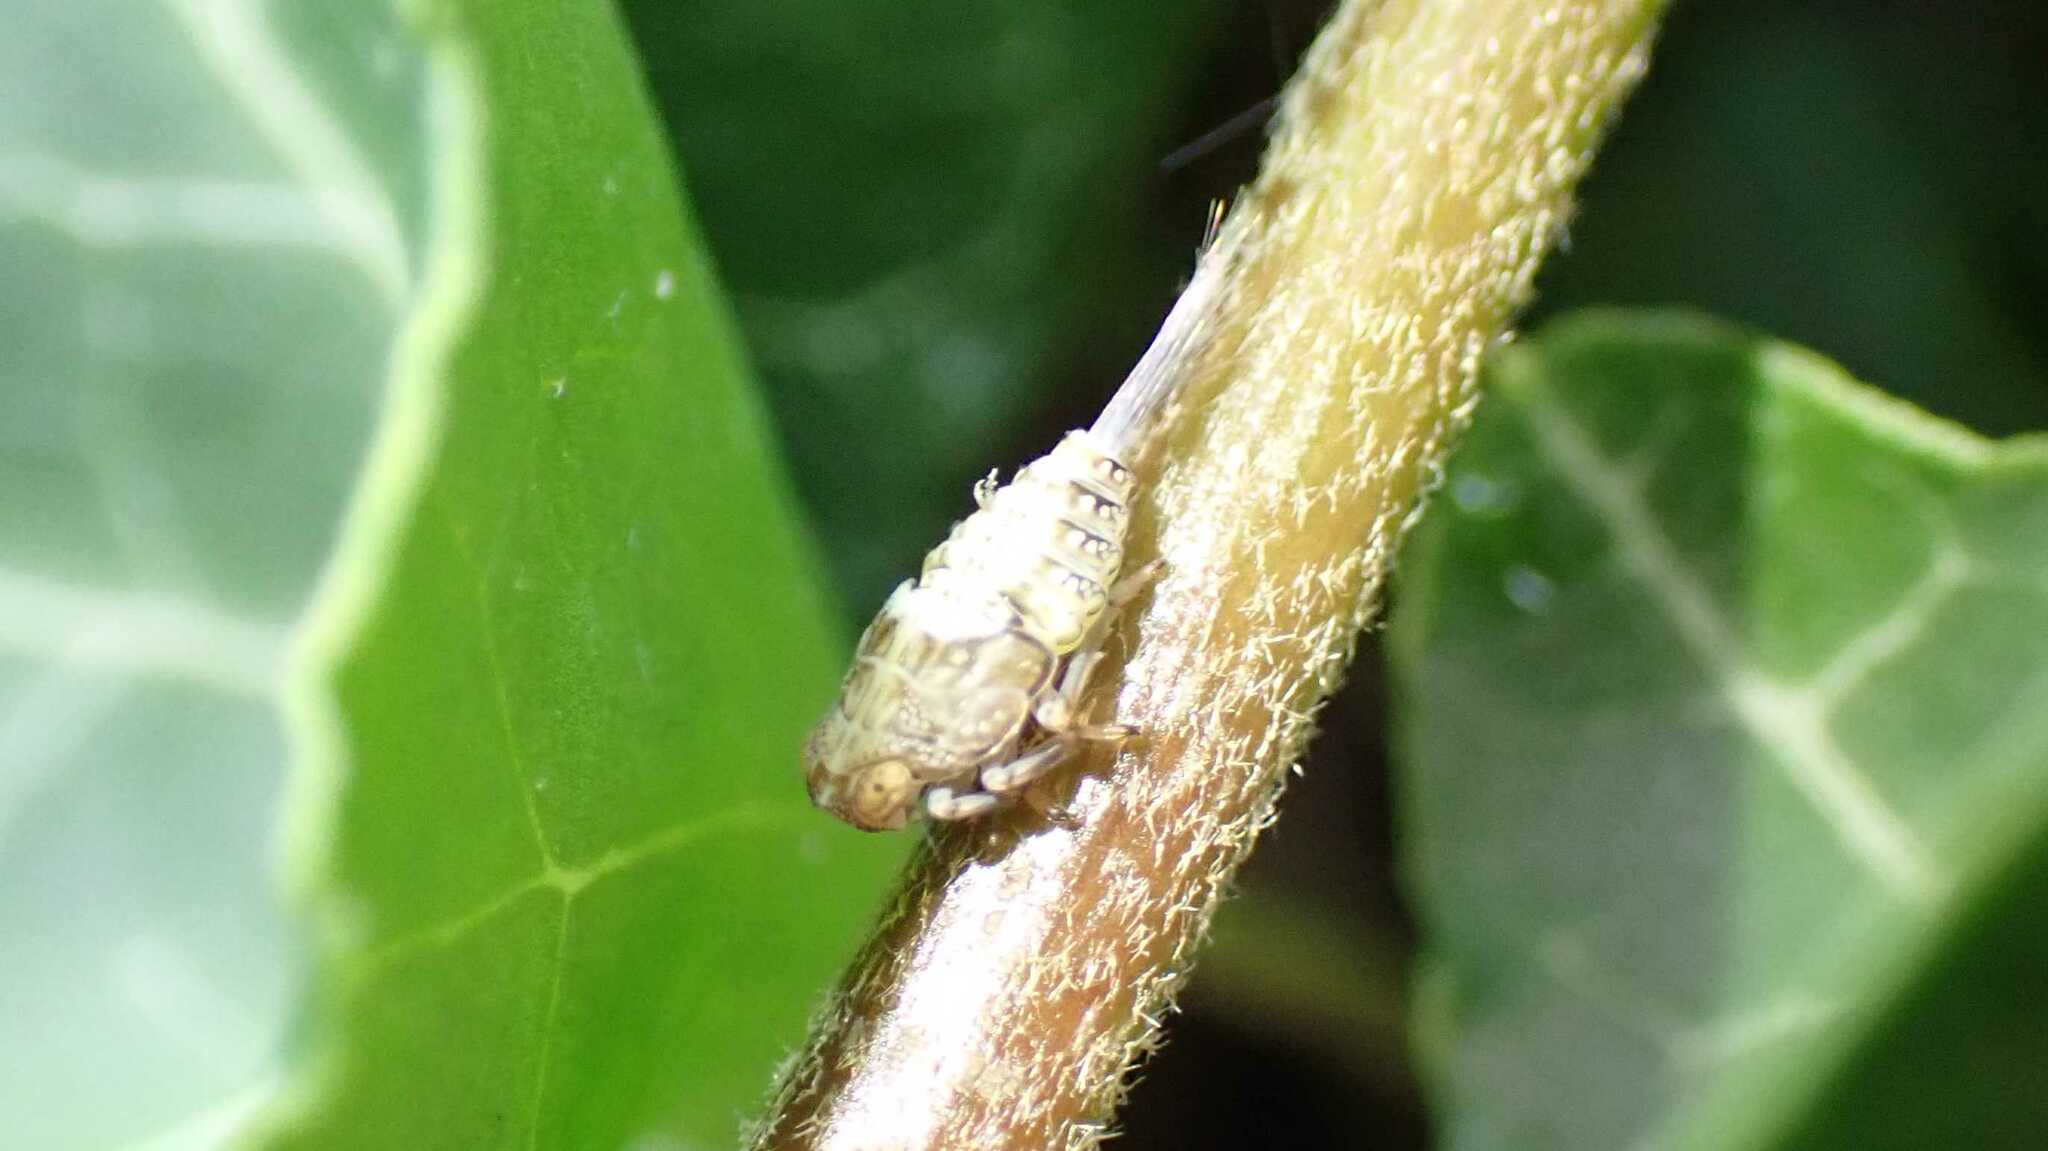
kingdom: Animalia
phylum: Arthropoda
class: Insecta
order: Hemiptera
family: Issidae
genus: Issus
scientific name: Issus coleoptratus
